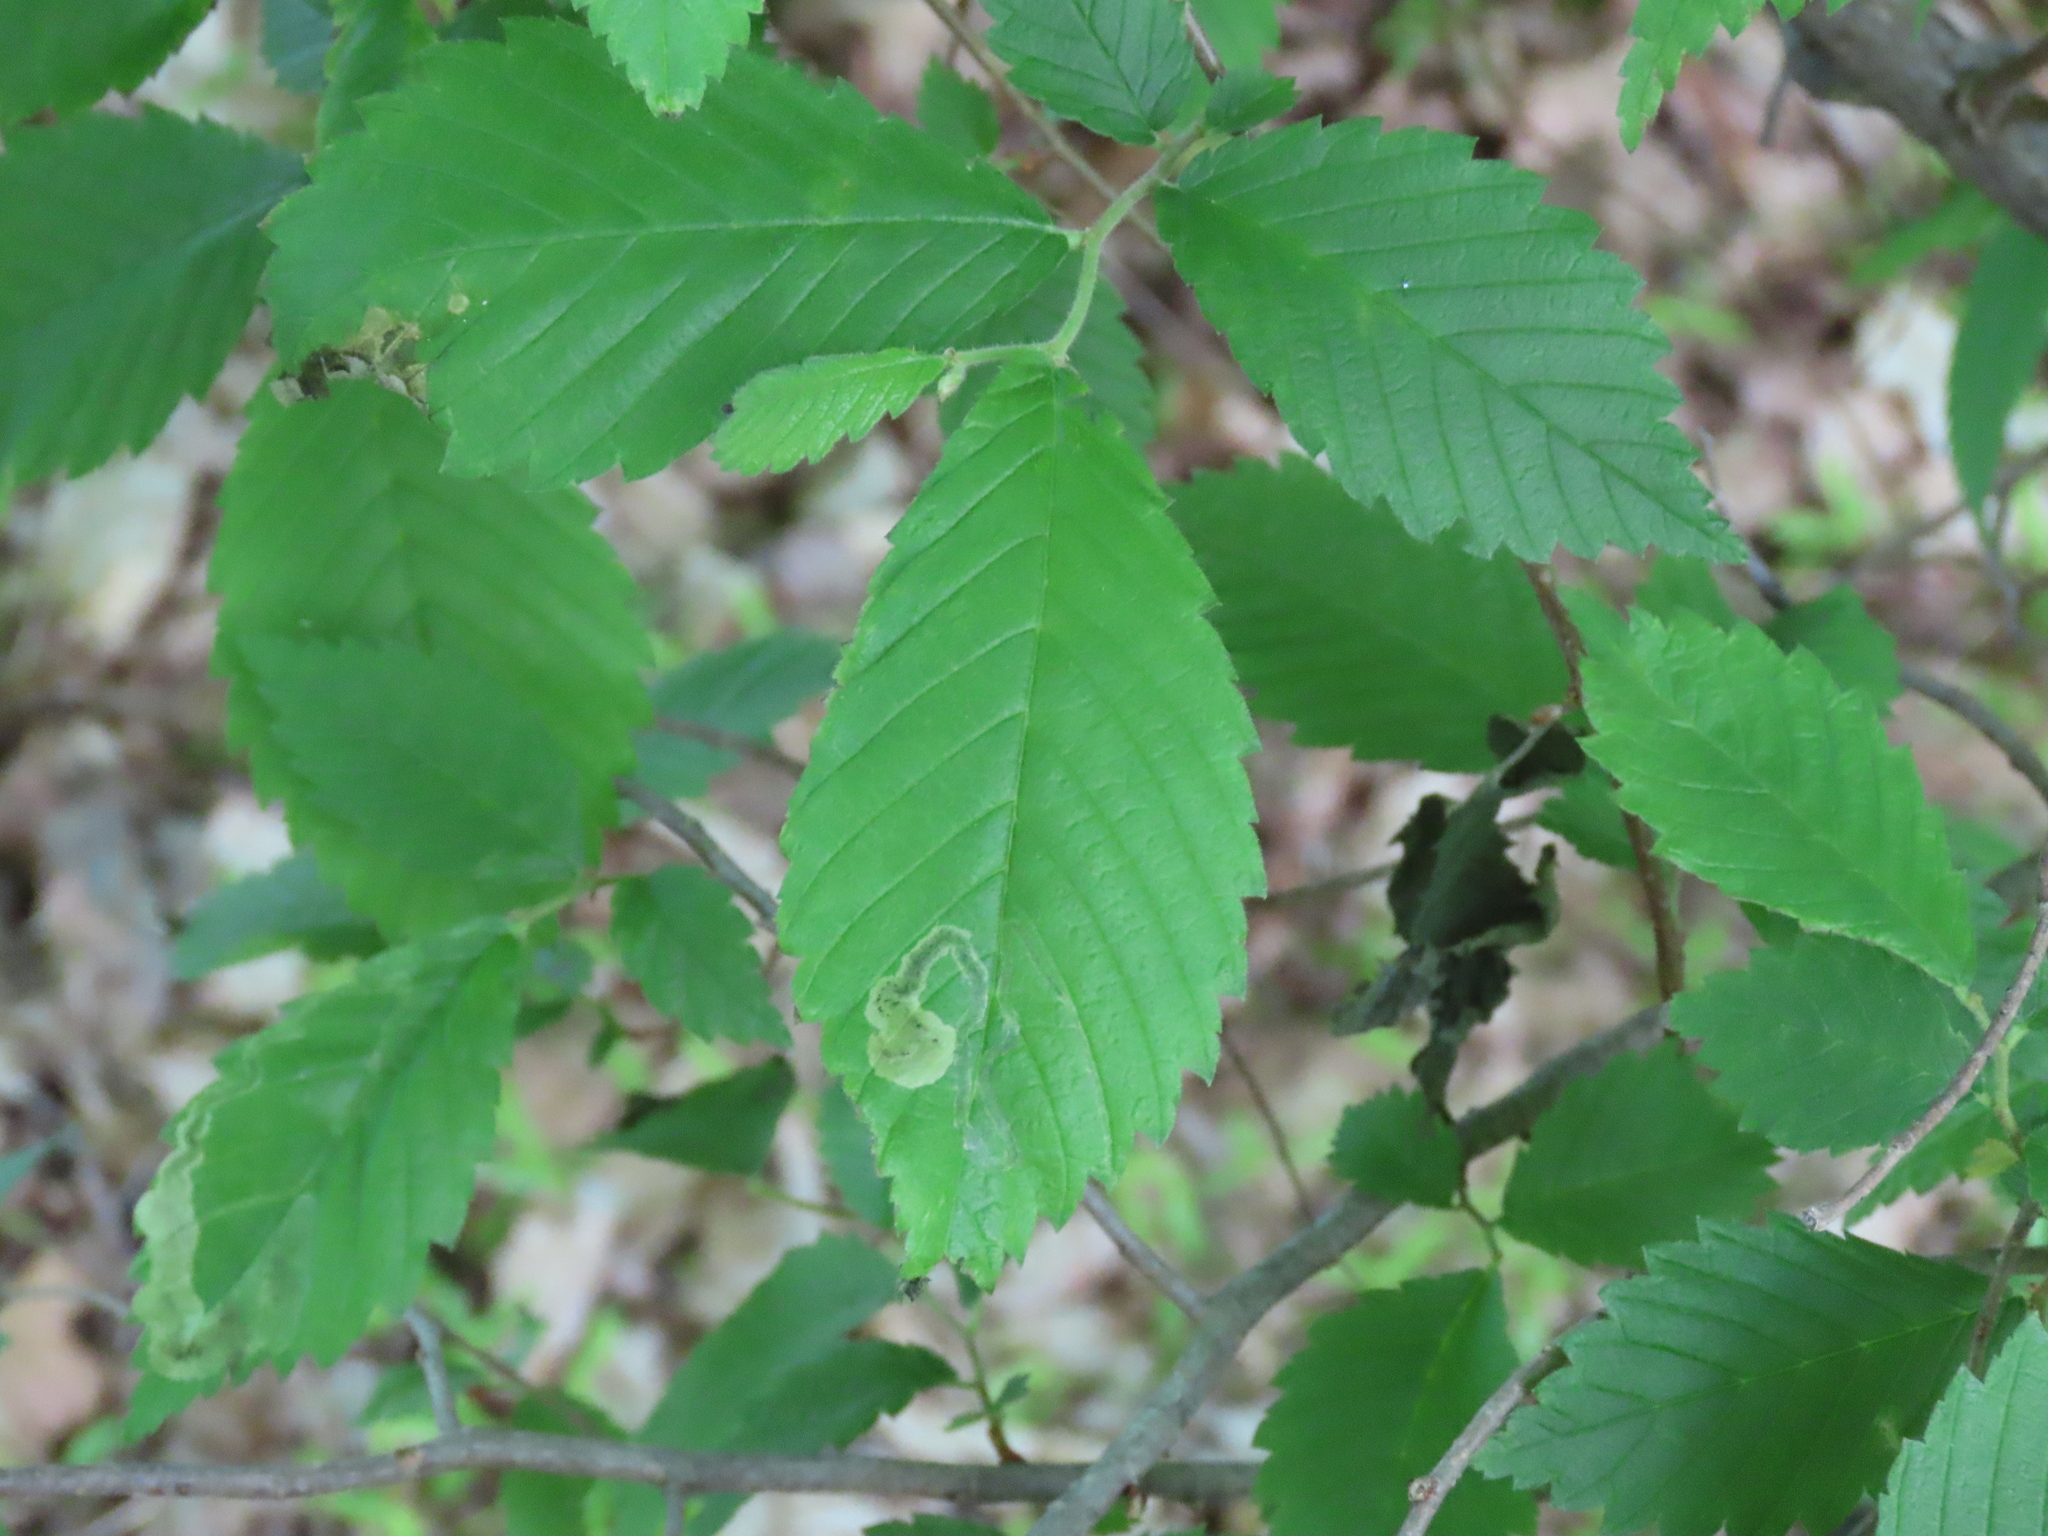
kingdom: Animalia
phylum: Arthropoda
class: Insecta
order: Diptera
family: Agromyzidae
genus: Agromyza
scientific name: Agromyza aristata
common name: Elm agromyzid leafminer
